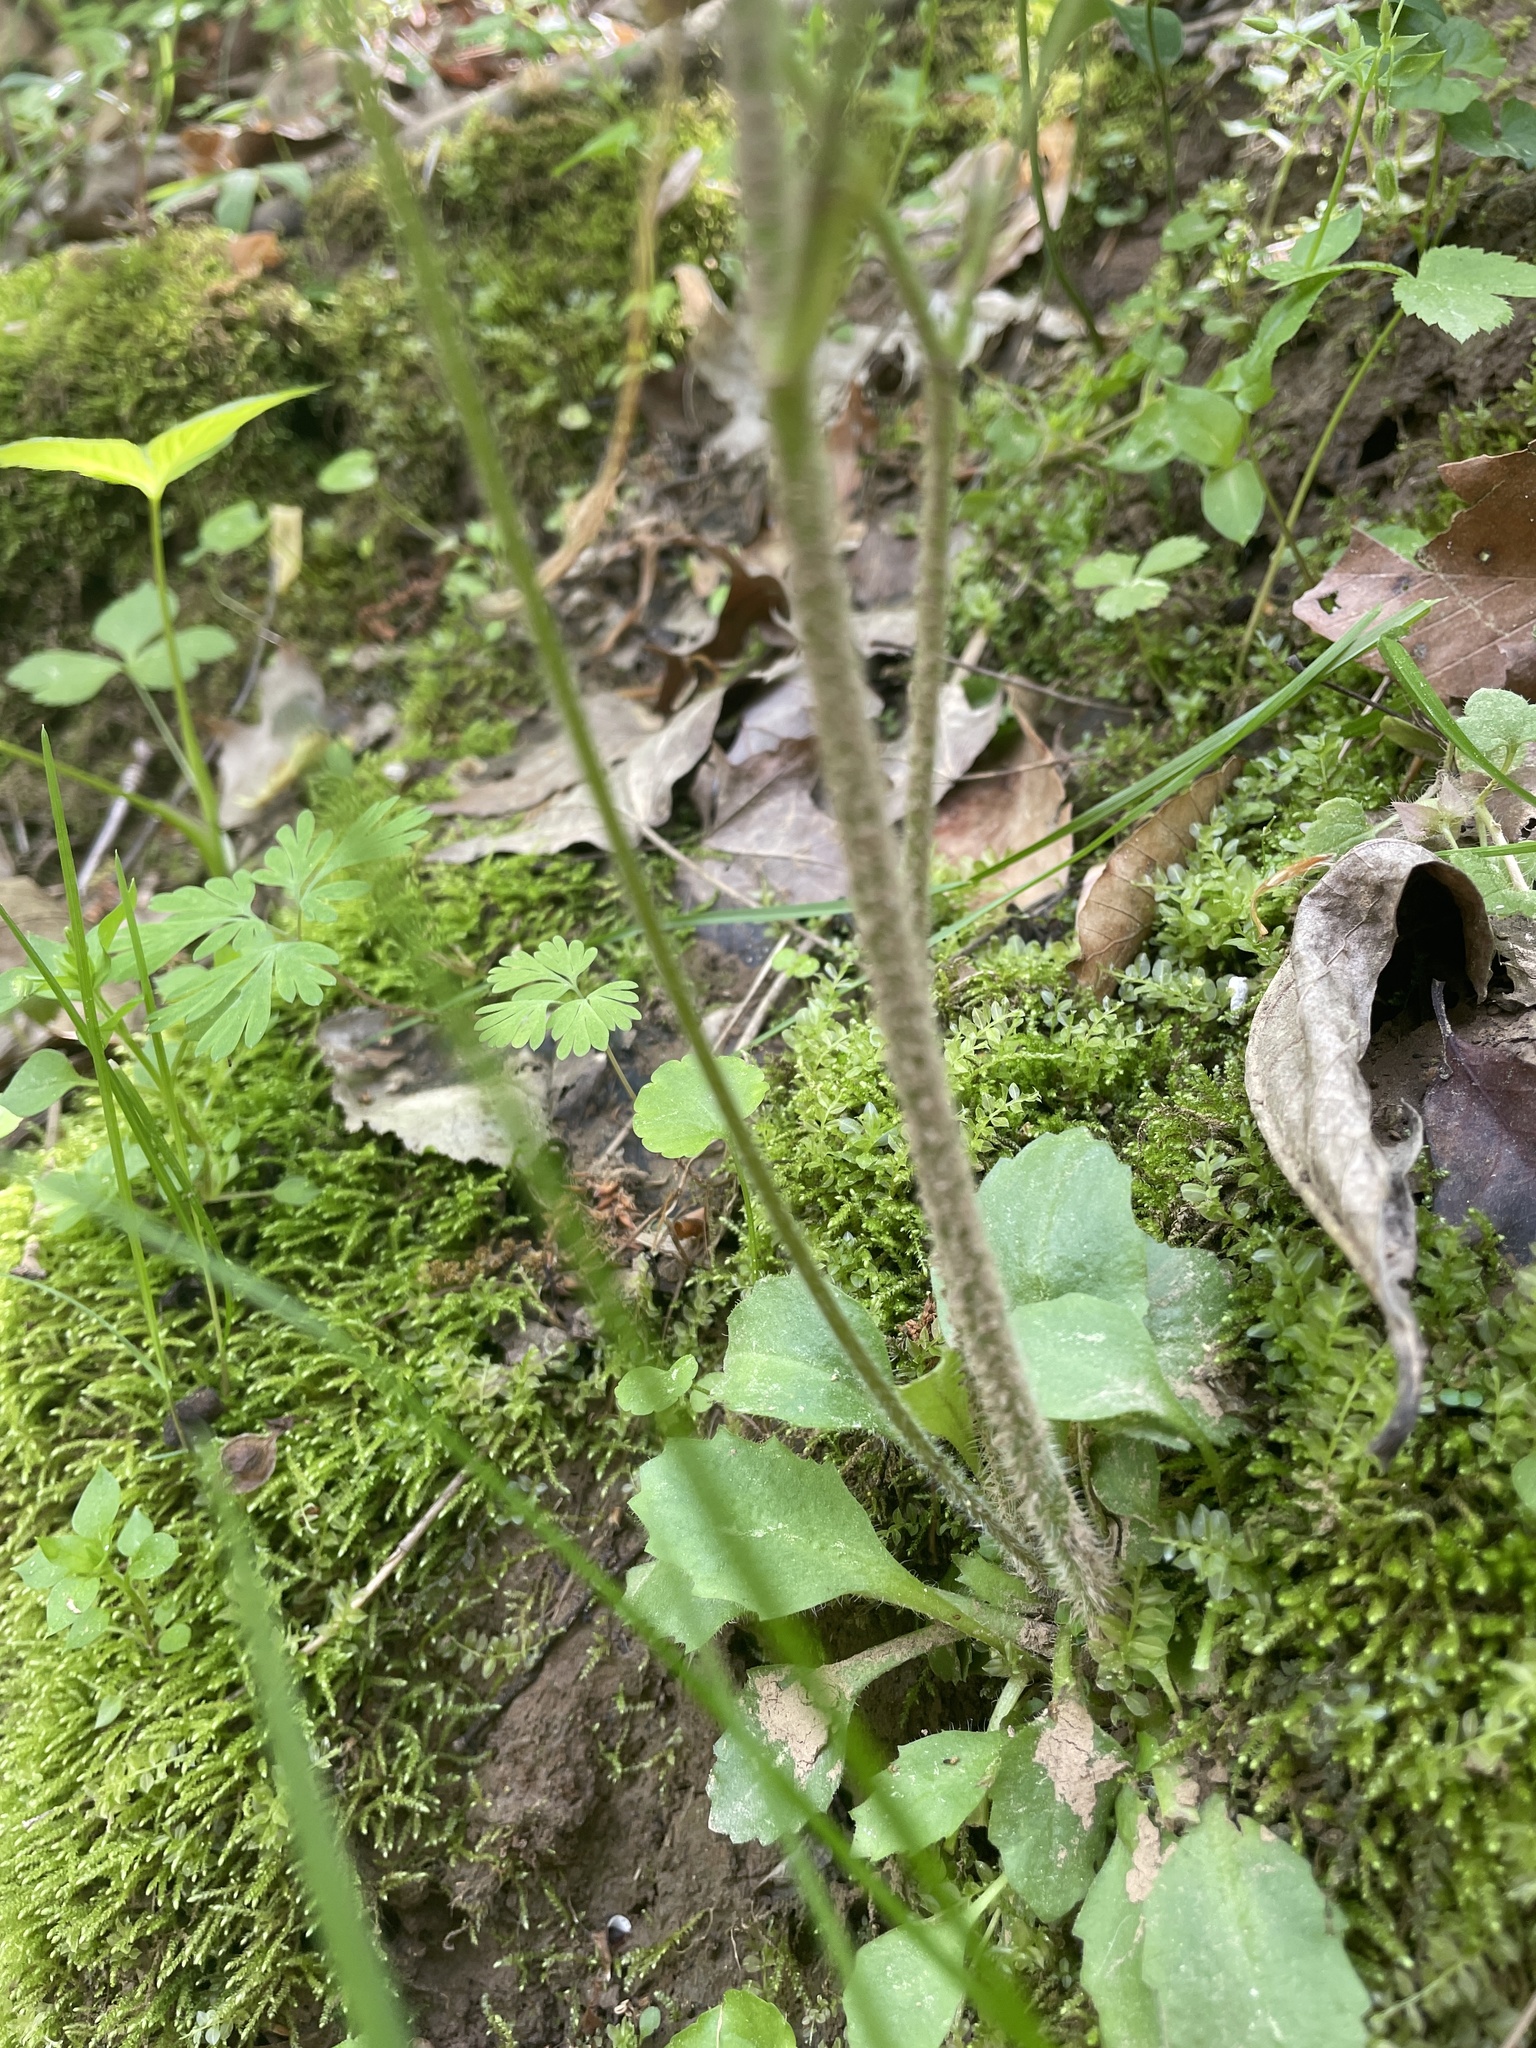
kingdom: Plantae
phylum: Tracheophyta
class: Magnoliopsida
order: Saxifragales
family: Saxifragaceae
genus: Micranthes
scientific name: Micranthes virginiensis
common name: Early saxifrage
